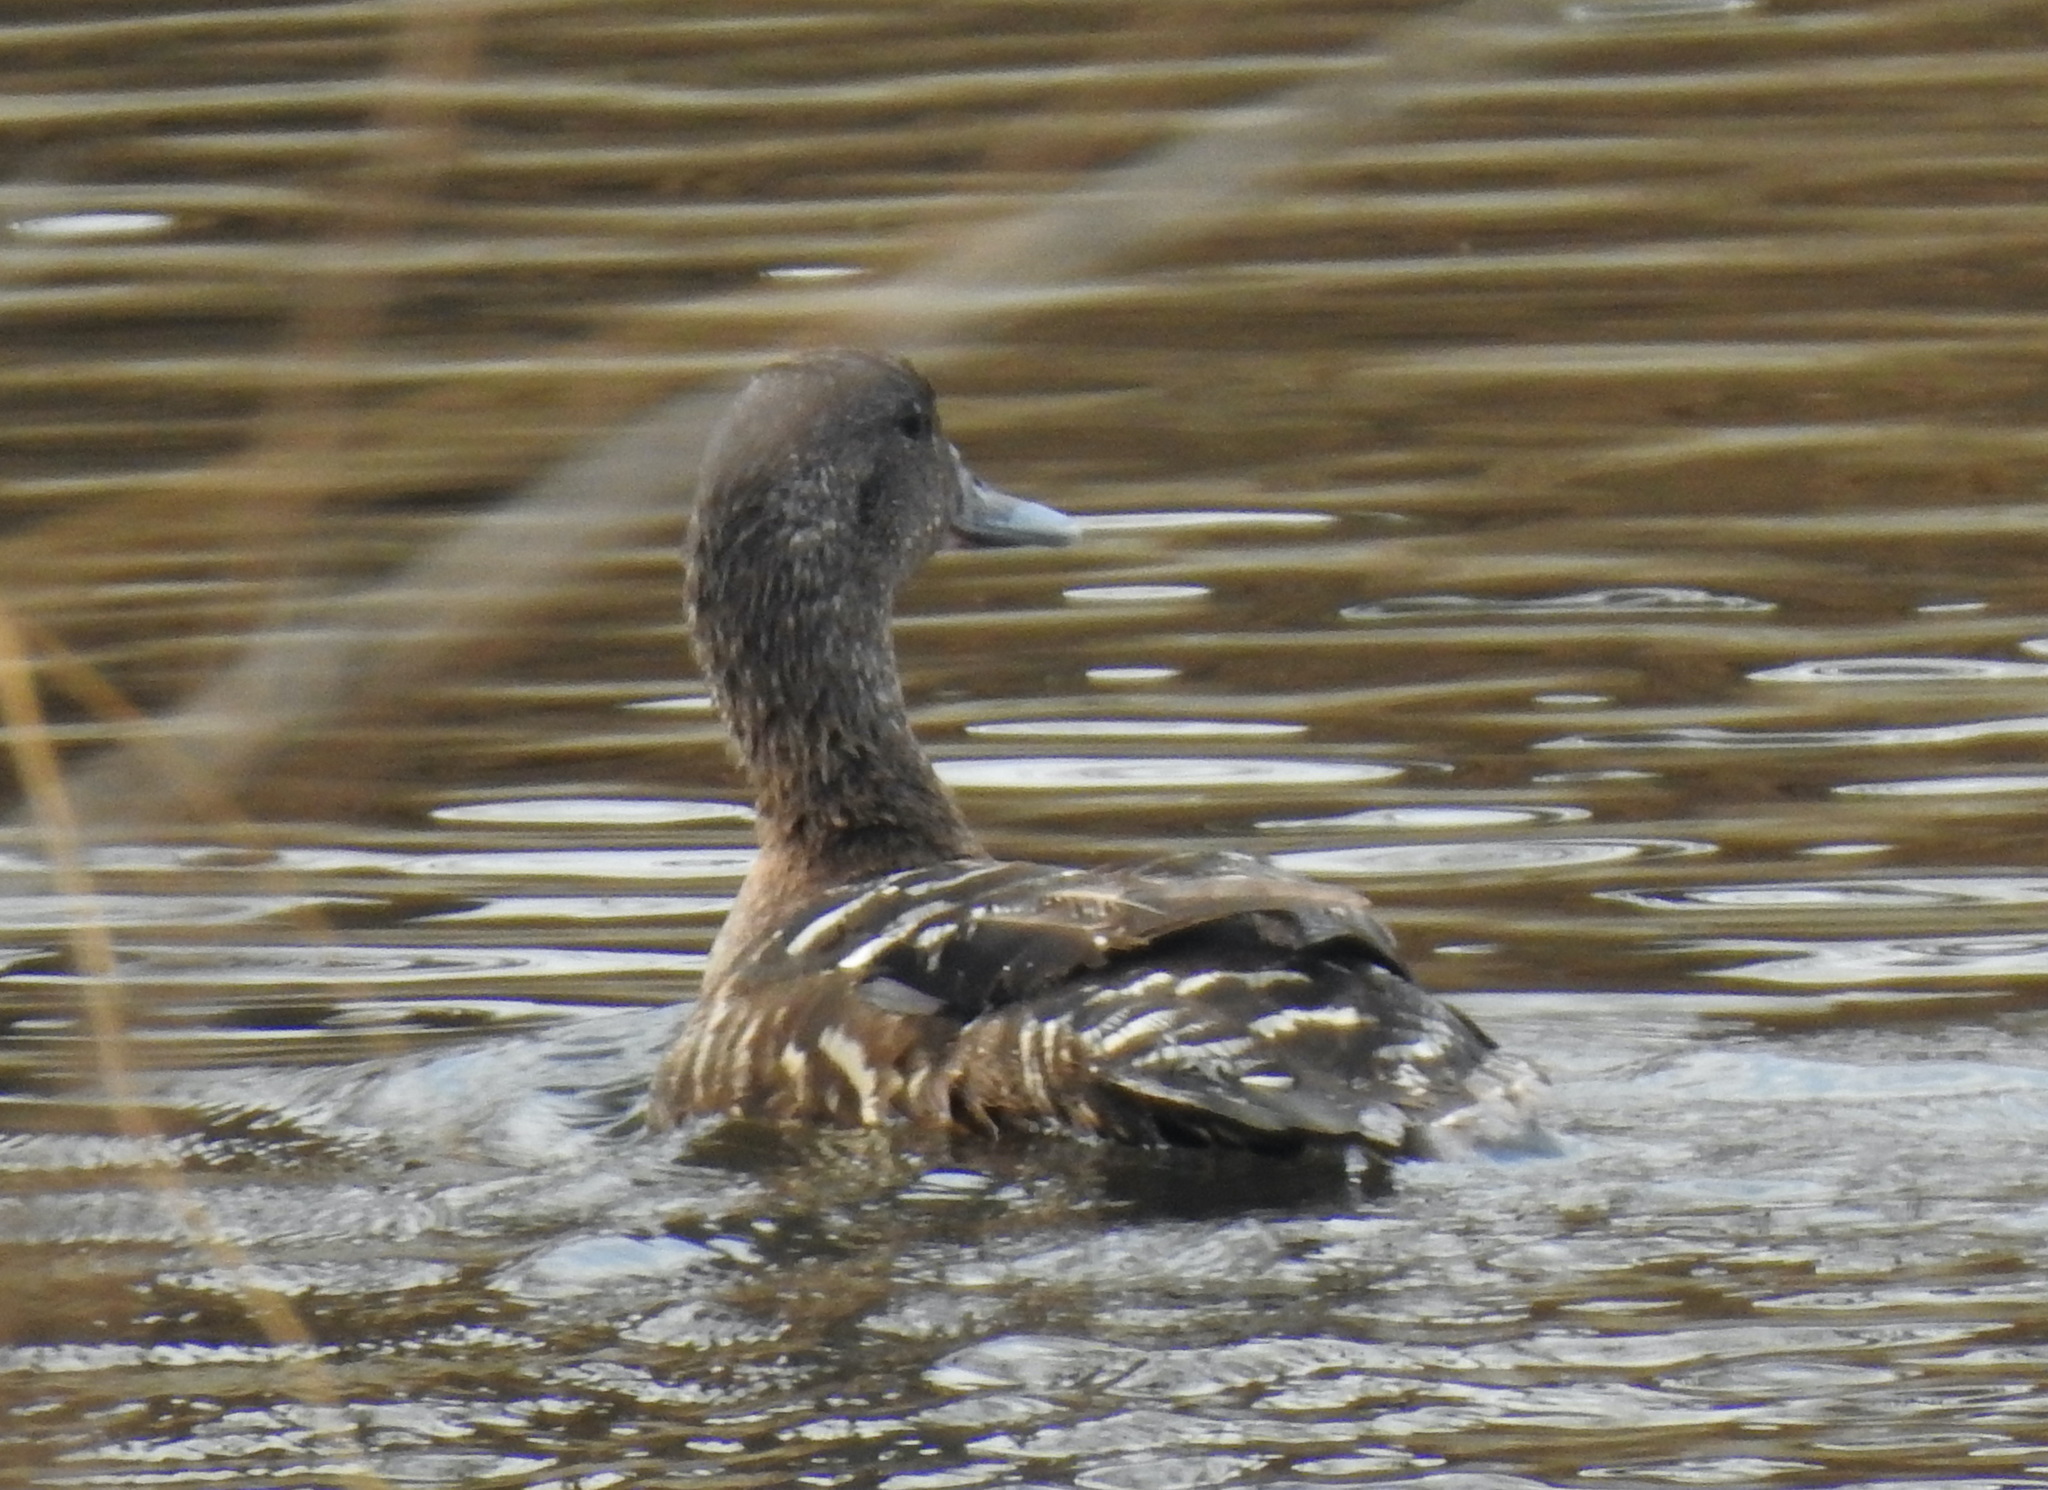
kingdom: Animalia
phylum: Chordata
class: Aves
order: Anseriformes
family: Anatidae
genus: Anas
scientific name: Anas sparsa
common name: African black duck
